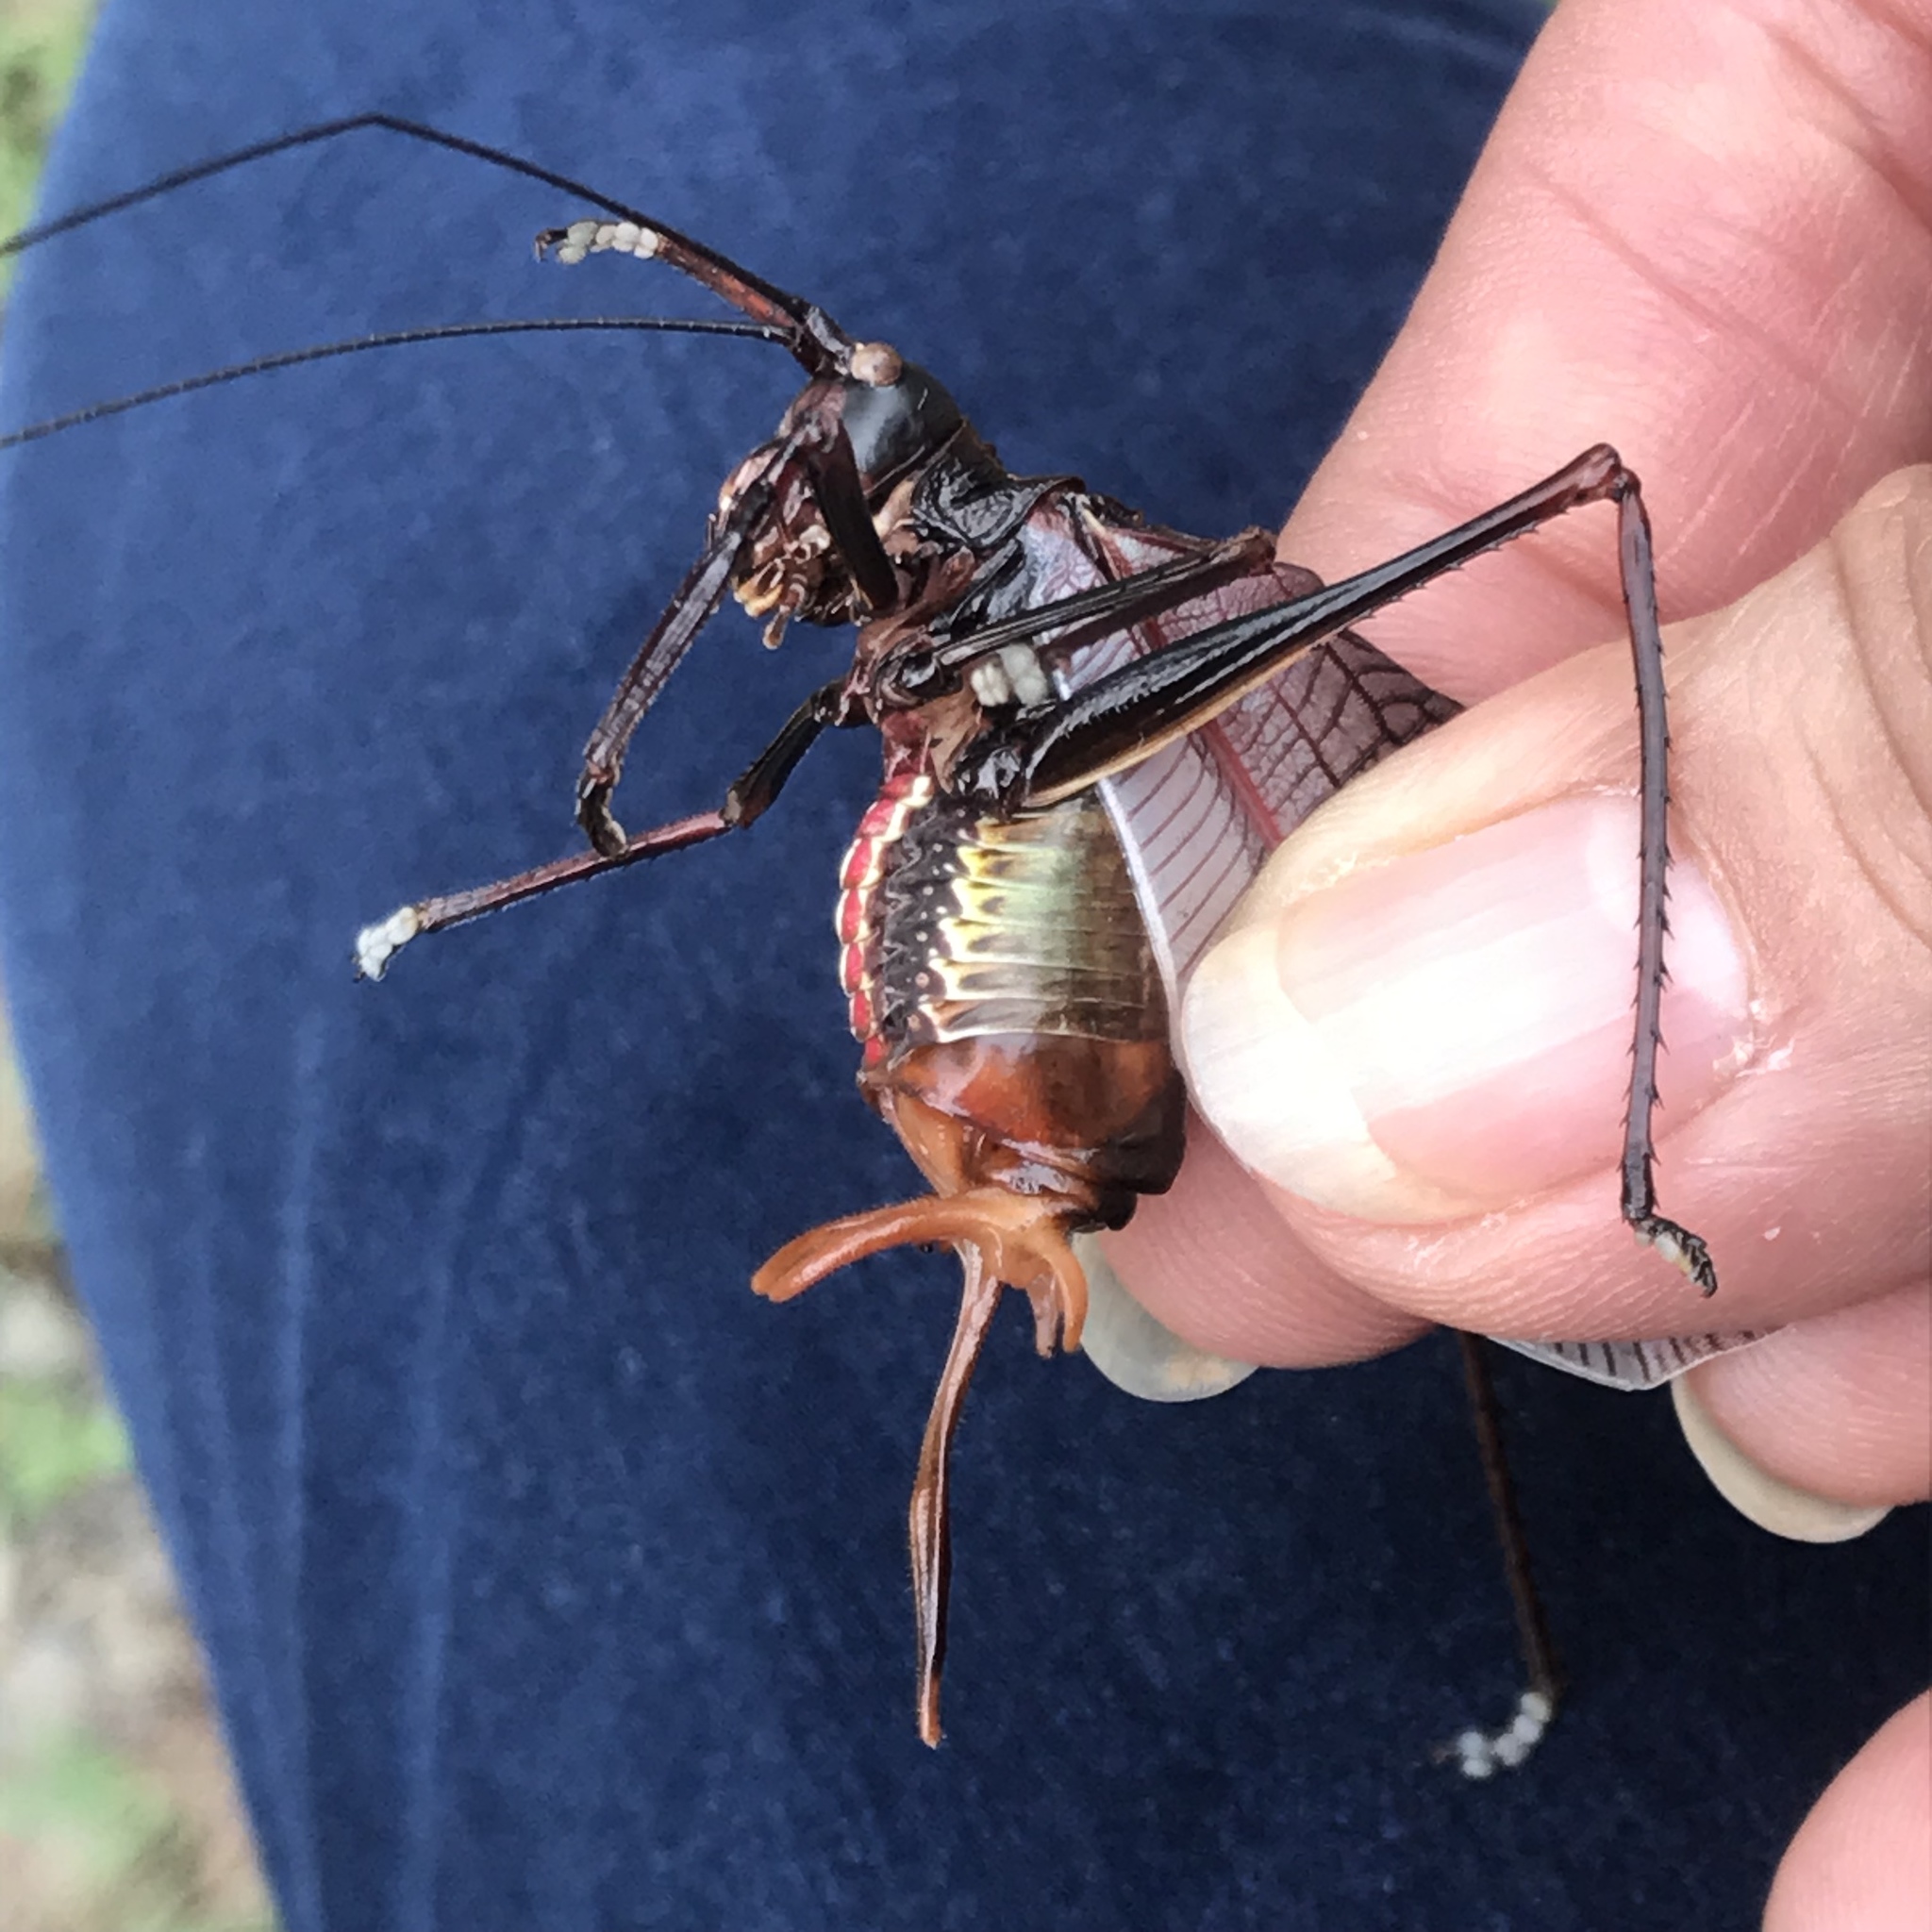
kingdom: Animalia
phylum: Arthropoda
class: Insecta
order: Orthoptera
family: Tettigoniidae
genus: Pterophylla
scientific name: Pterophylla beltrani
